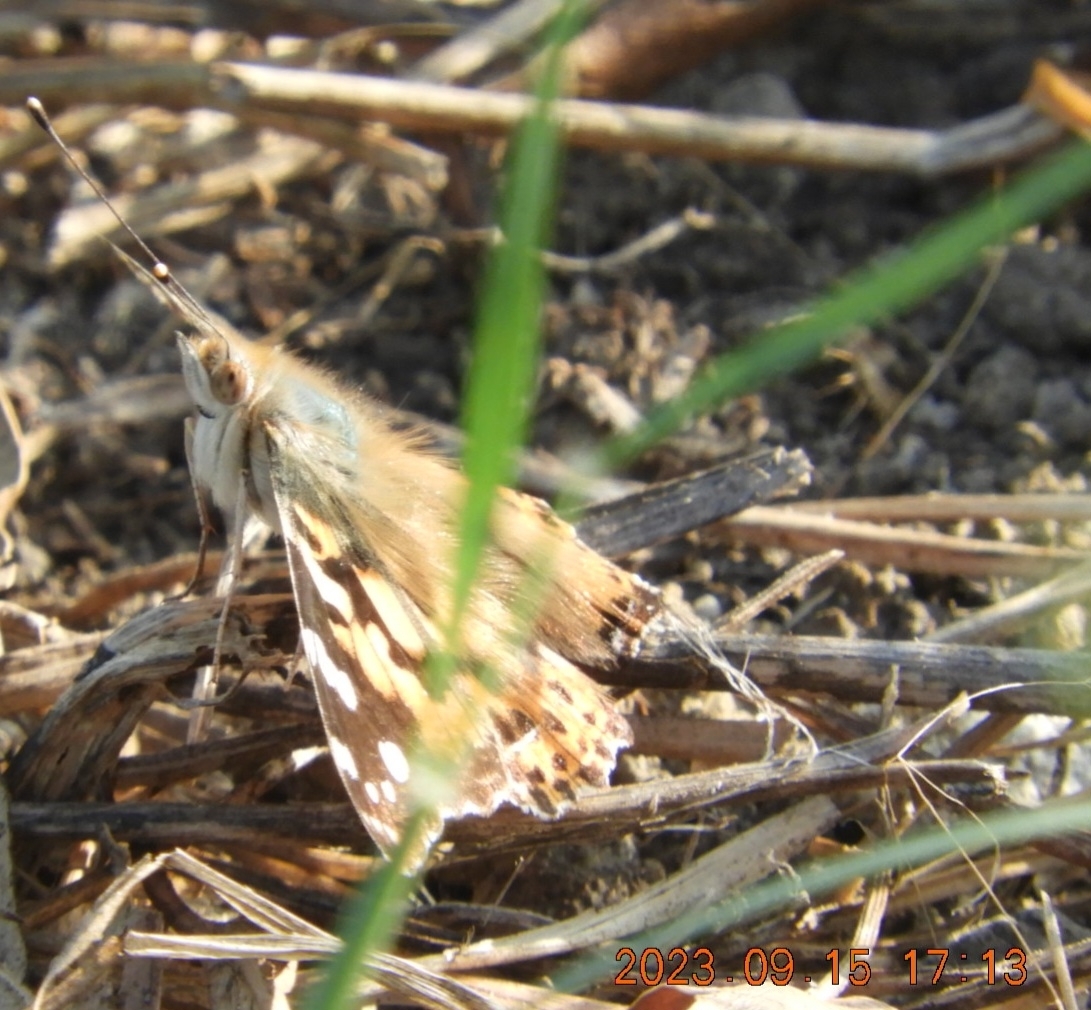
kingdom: Animalia
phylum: Arthropoda
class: Insecta
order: Lepidoptera
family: Nymphalidae
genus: Vanessa
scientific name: Vanessa cardui
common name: Painted lady
